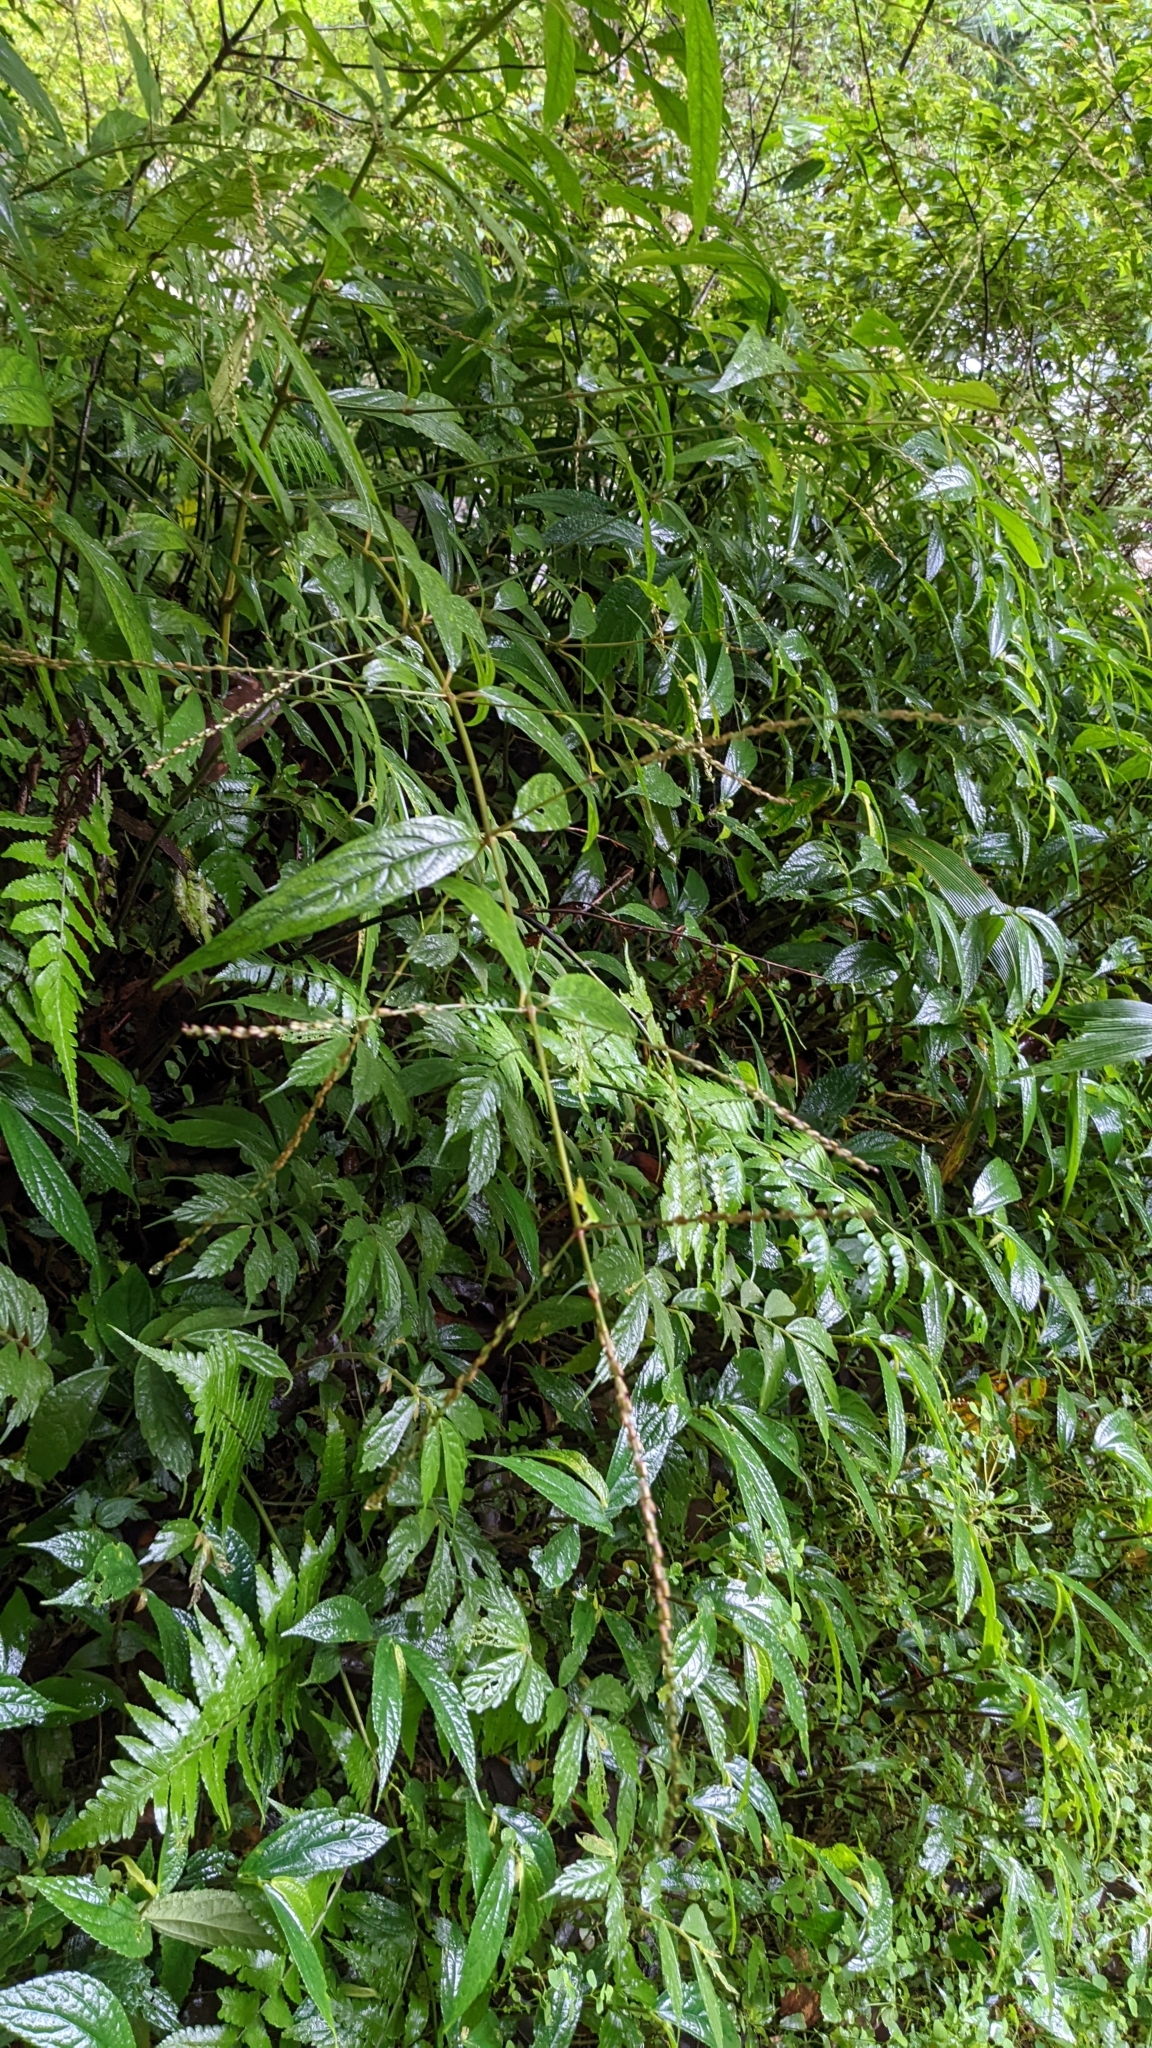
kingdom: Plantae
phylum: Tracheophyta
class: Magnoliopsida
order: Caryophyllales
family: Amaranthaceae
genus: Achyranthes
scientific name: Achyranthes bidentata
